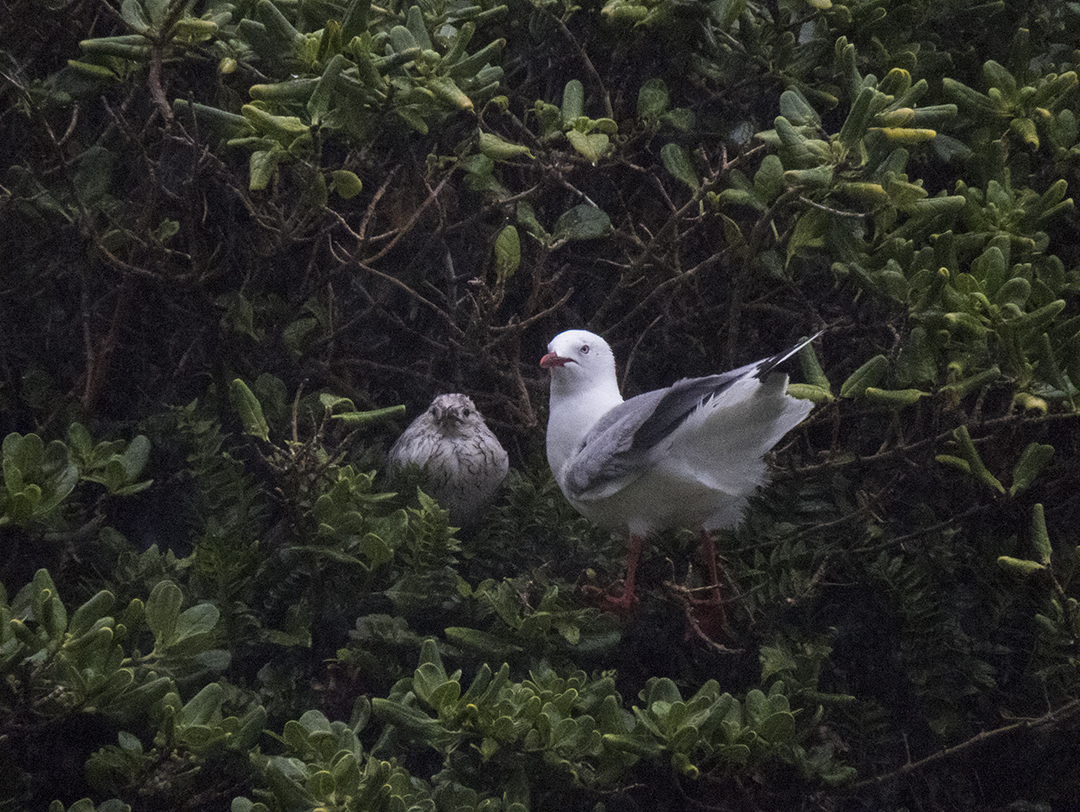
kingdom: Animalia
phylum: Chordata
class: Aves
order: Charadriiformes
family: Laridae
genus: Chroicocephalus
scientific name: Chroicocephalus novaehollandiae
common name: Silver gull
